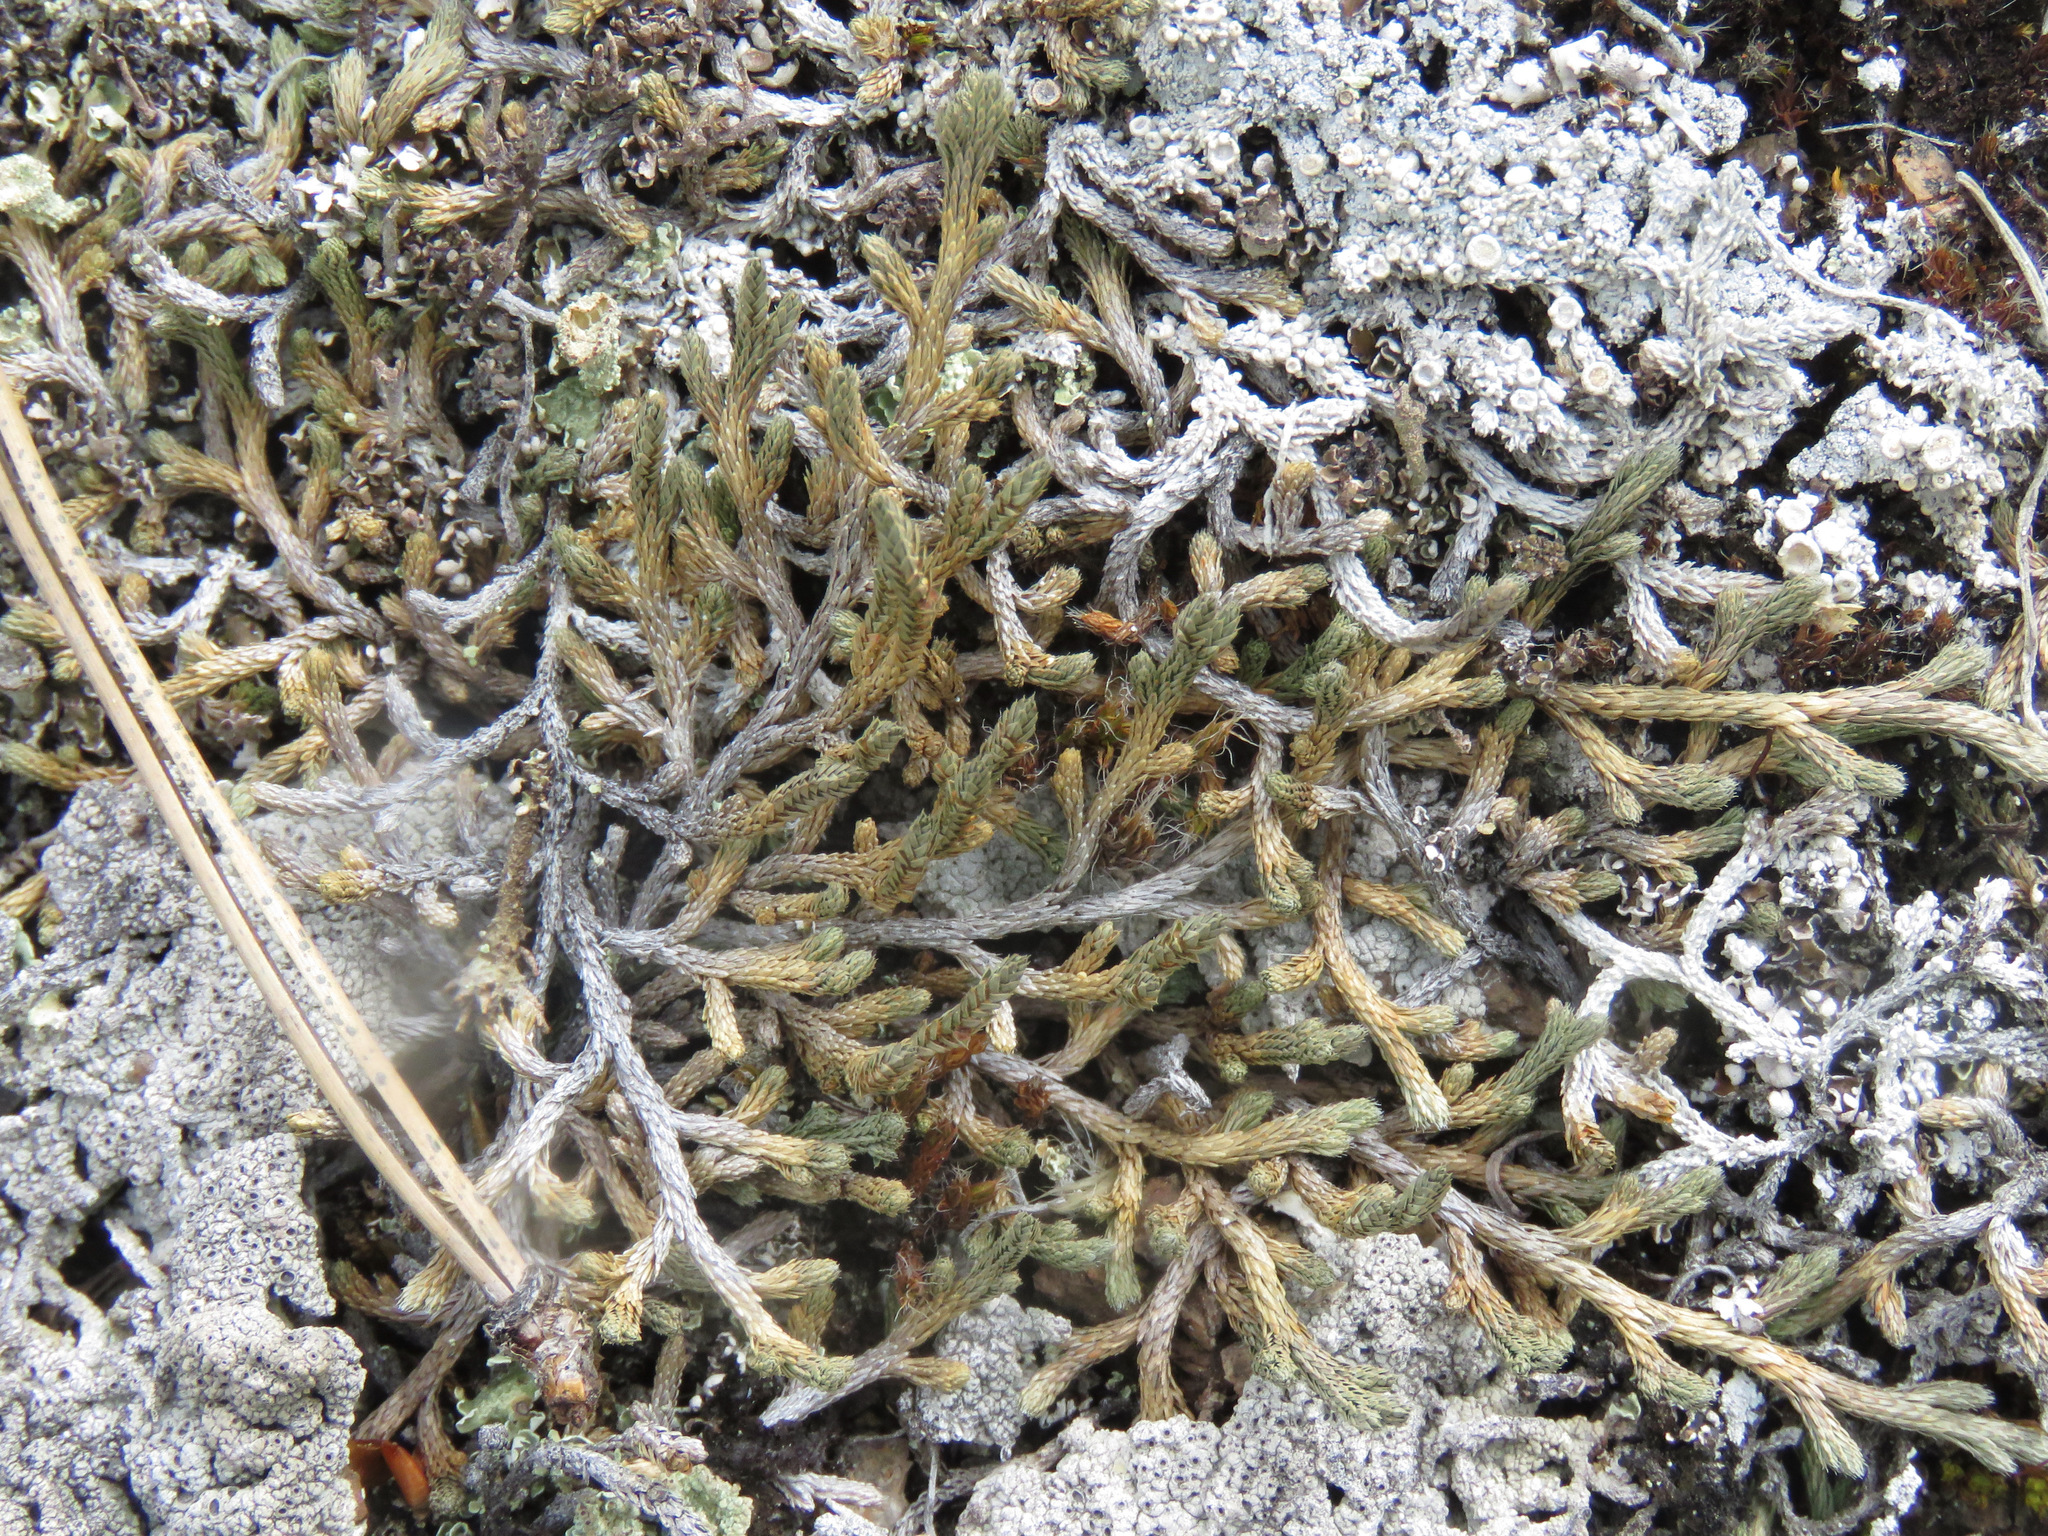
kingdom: Plantae
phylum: Tracheophyta
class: Lycopodiopsida
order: Selaginellales
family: Selaginellaceae
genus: Selaginella
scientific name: Selaginella wallacei
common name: Wallace's selaginella
